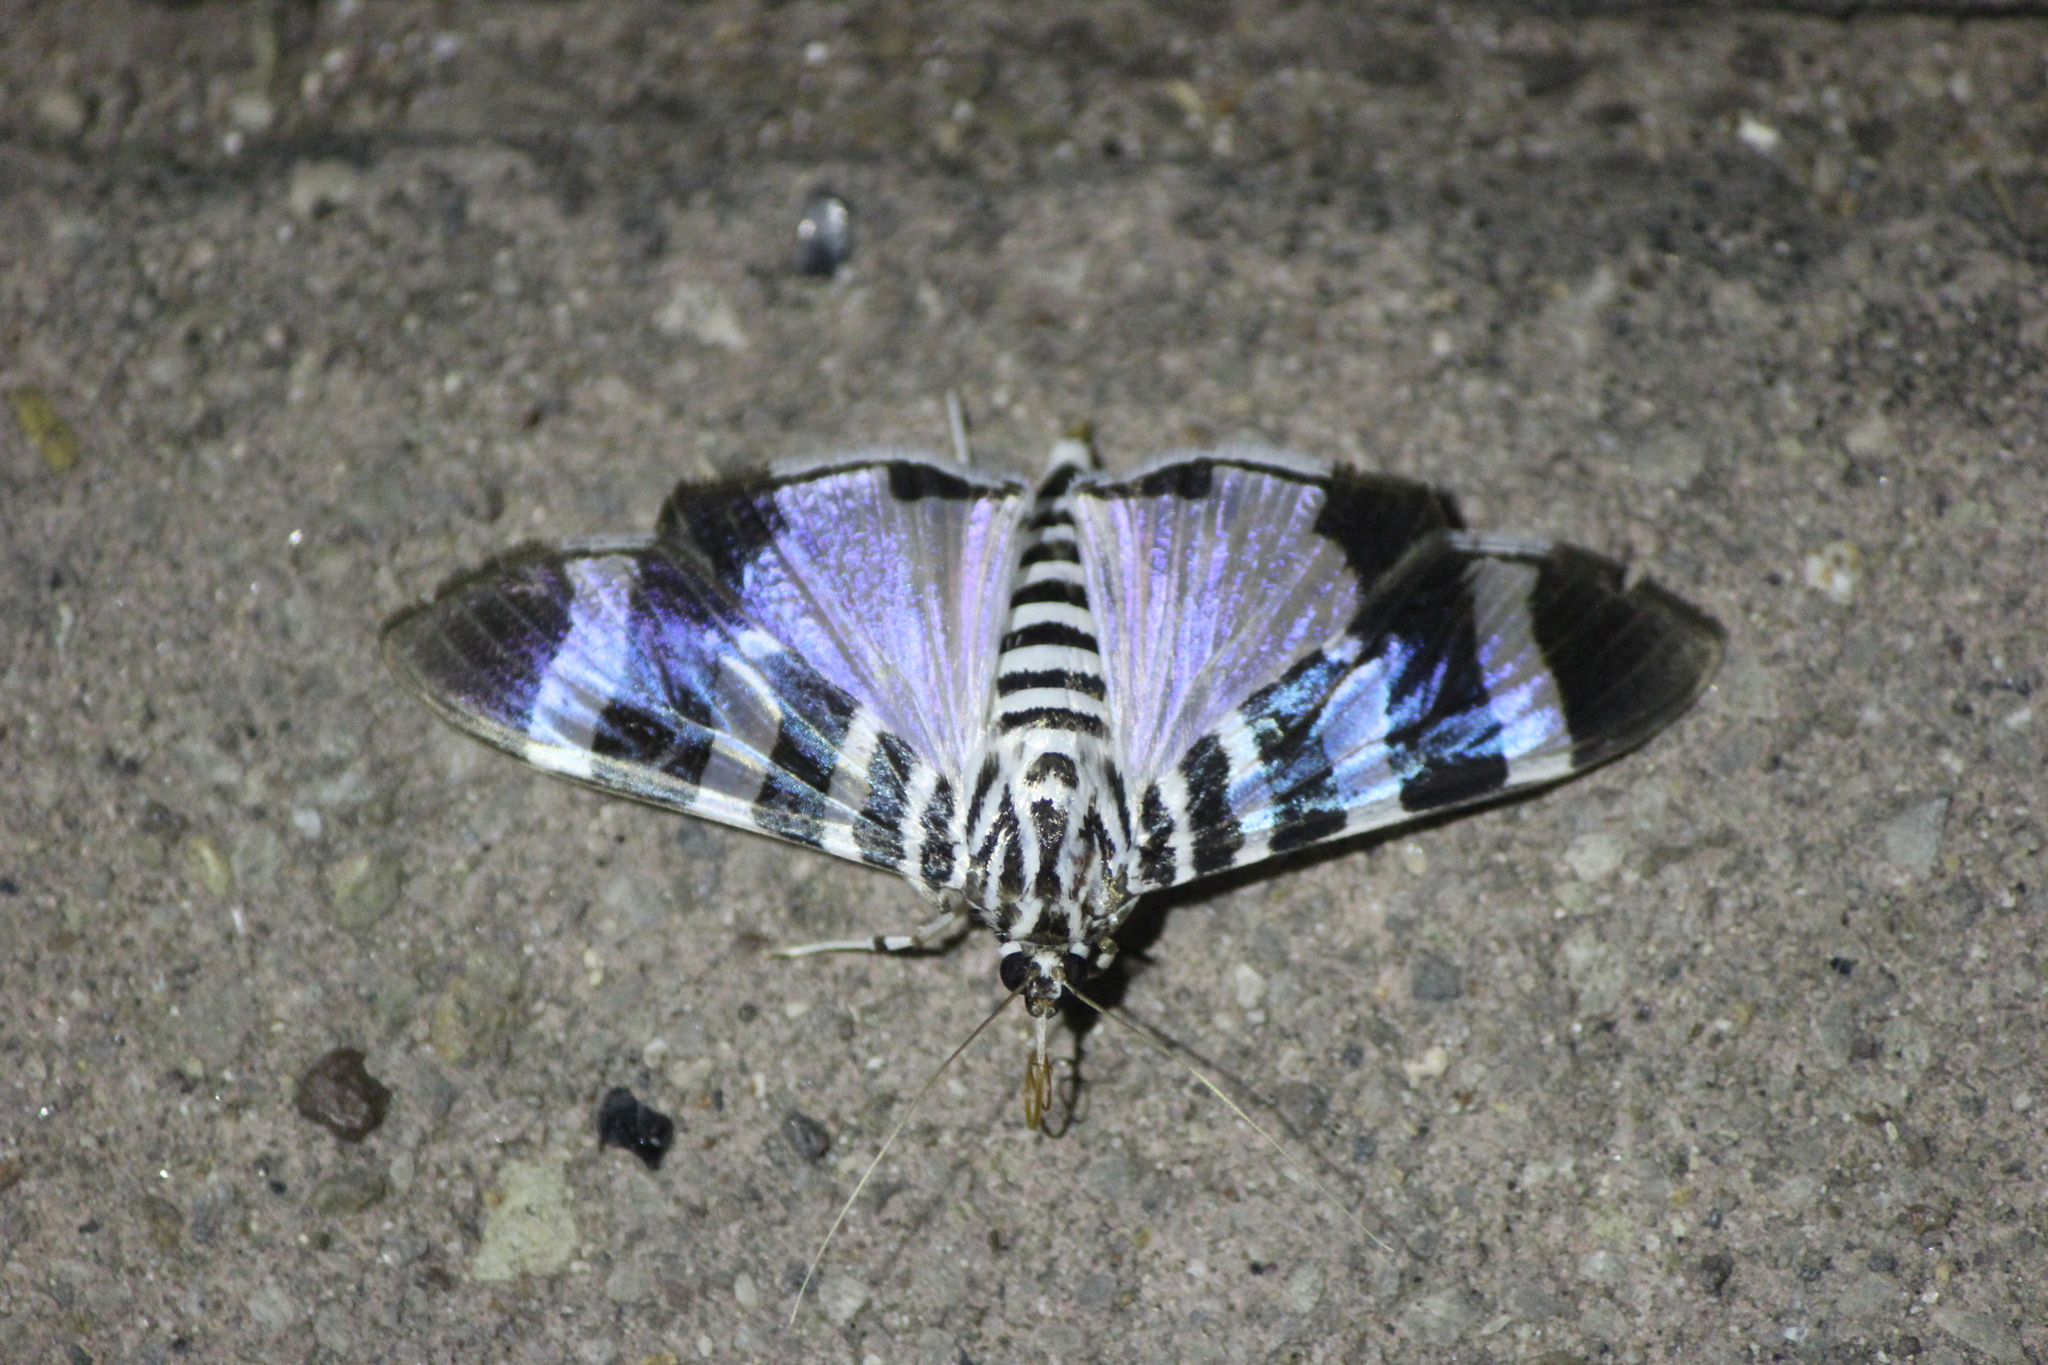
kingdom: Animalia
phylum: Arthropoda
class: Insecta
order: Lepidoptera
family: Crambidae
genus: Lypotigris
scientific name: Lypotigris reginalis
